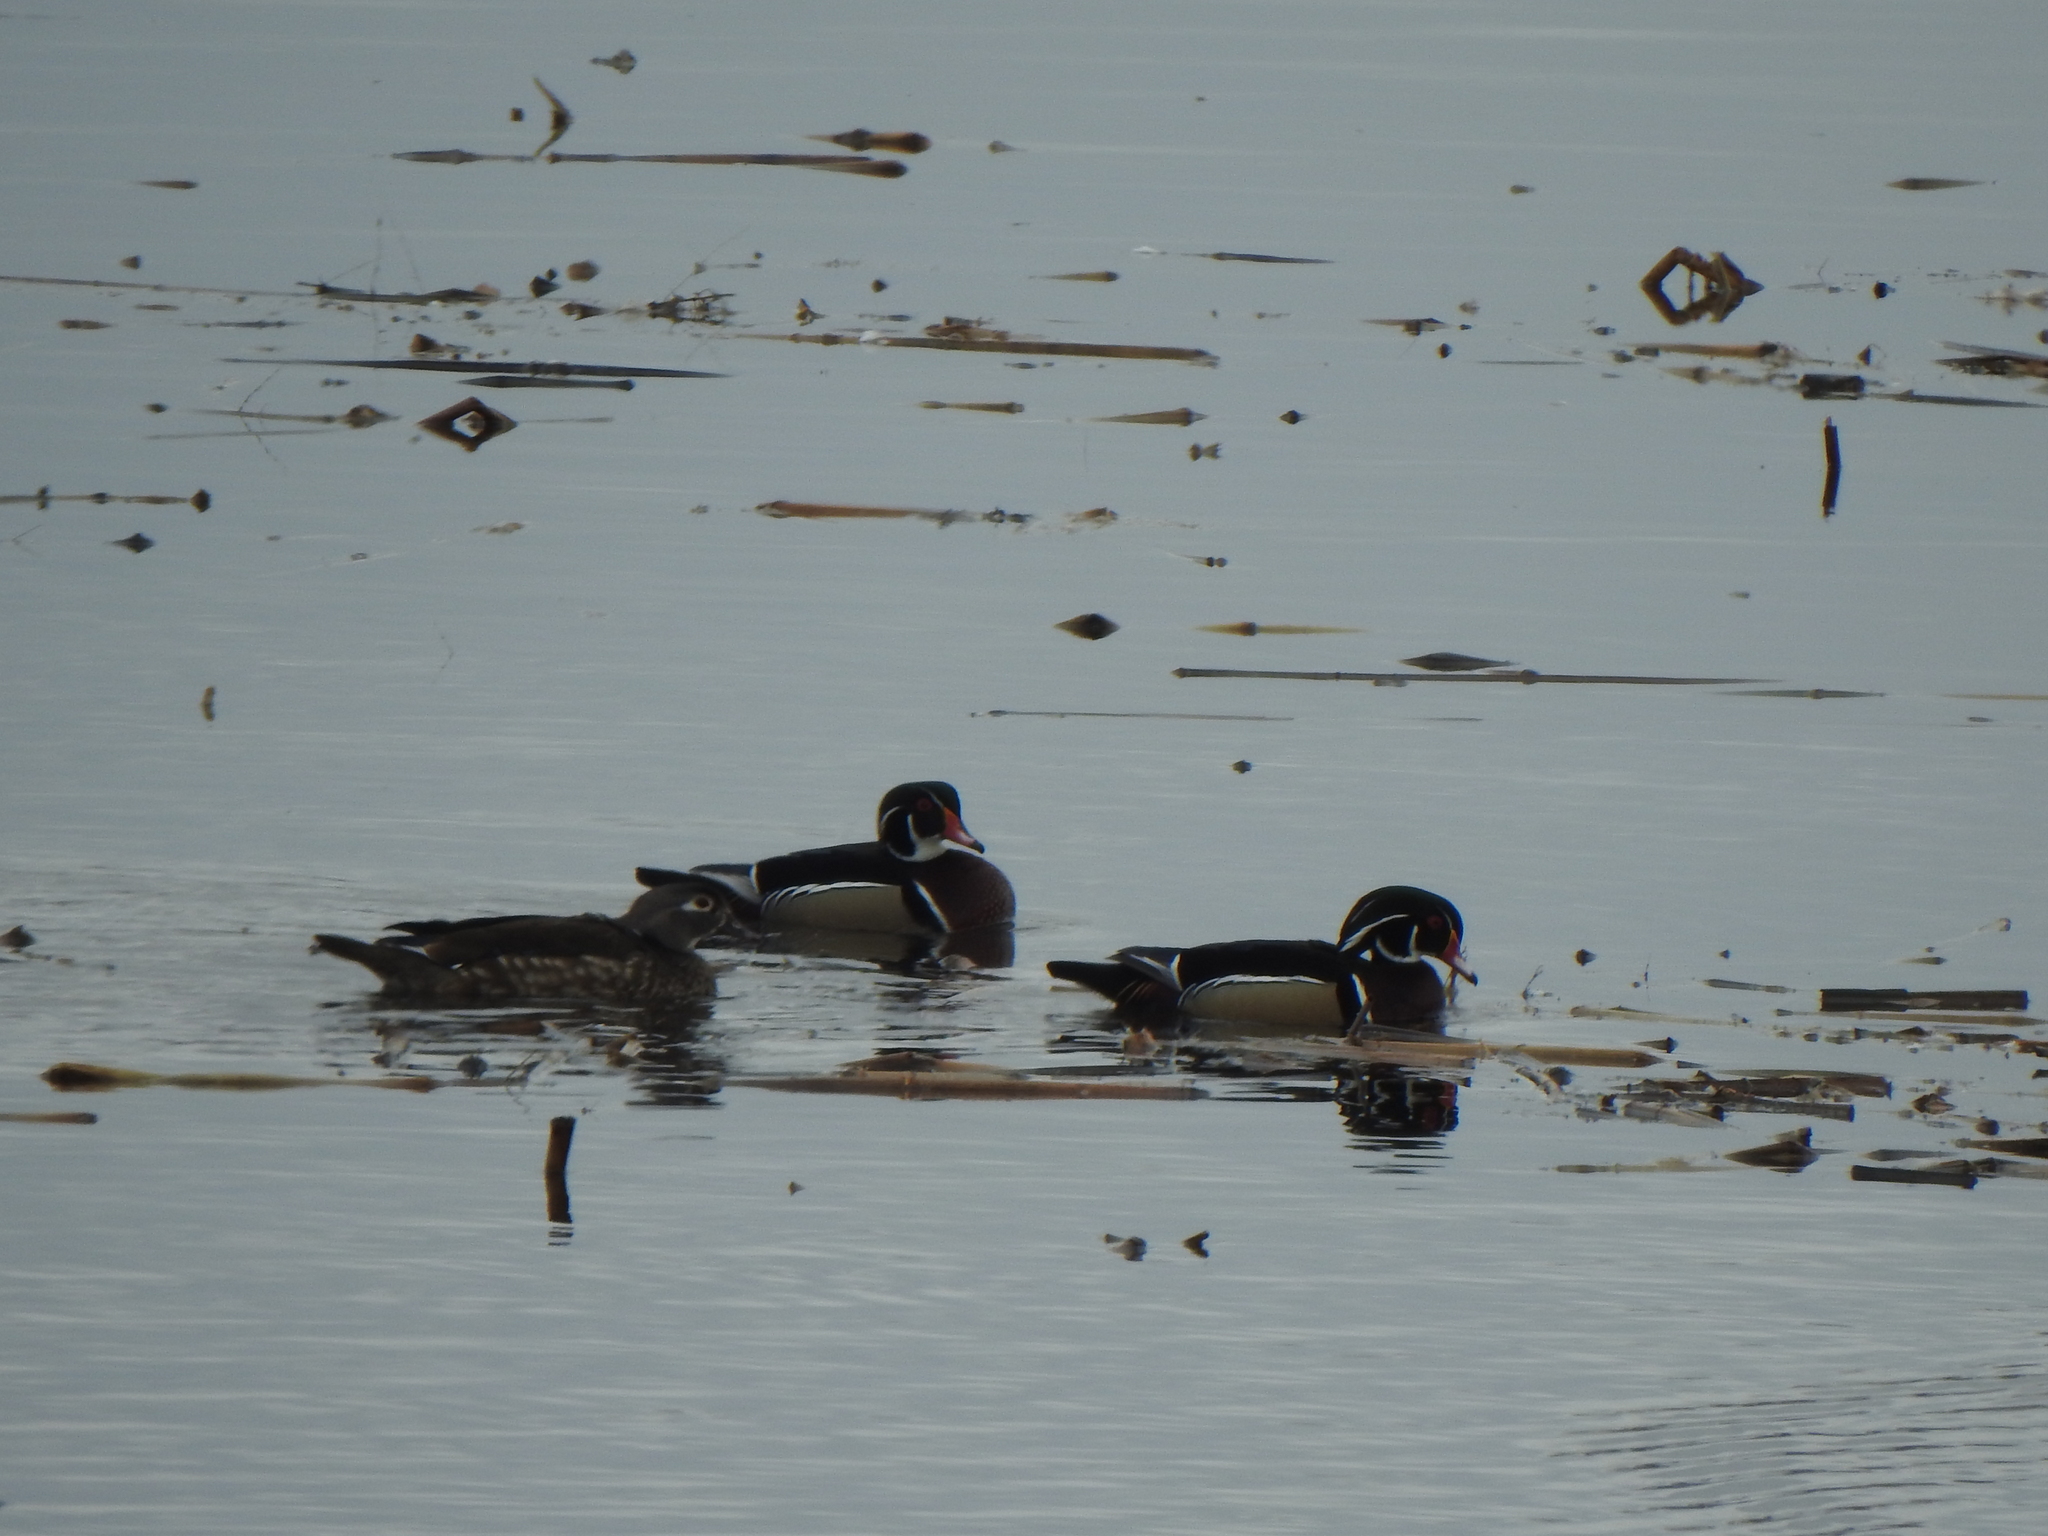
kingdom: Animalia
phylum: Chordata
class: Aves
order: Anseriformes
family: Anatidae
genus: Aix
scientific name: Aix sponsa
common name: Wood duck
